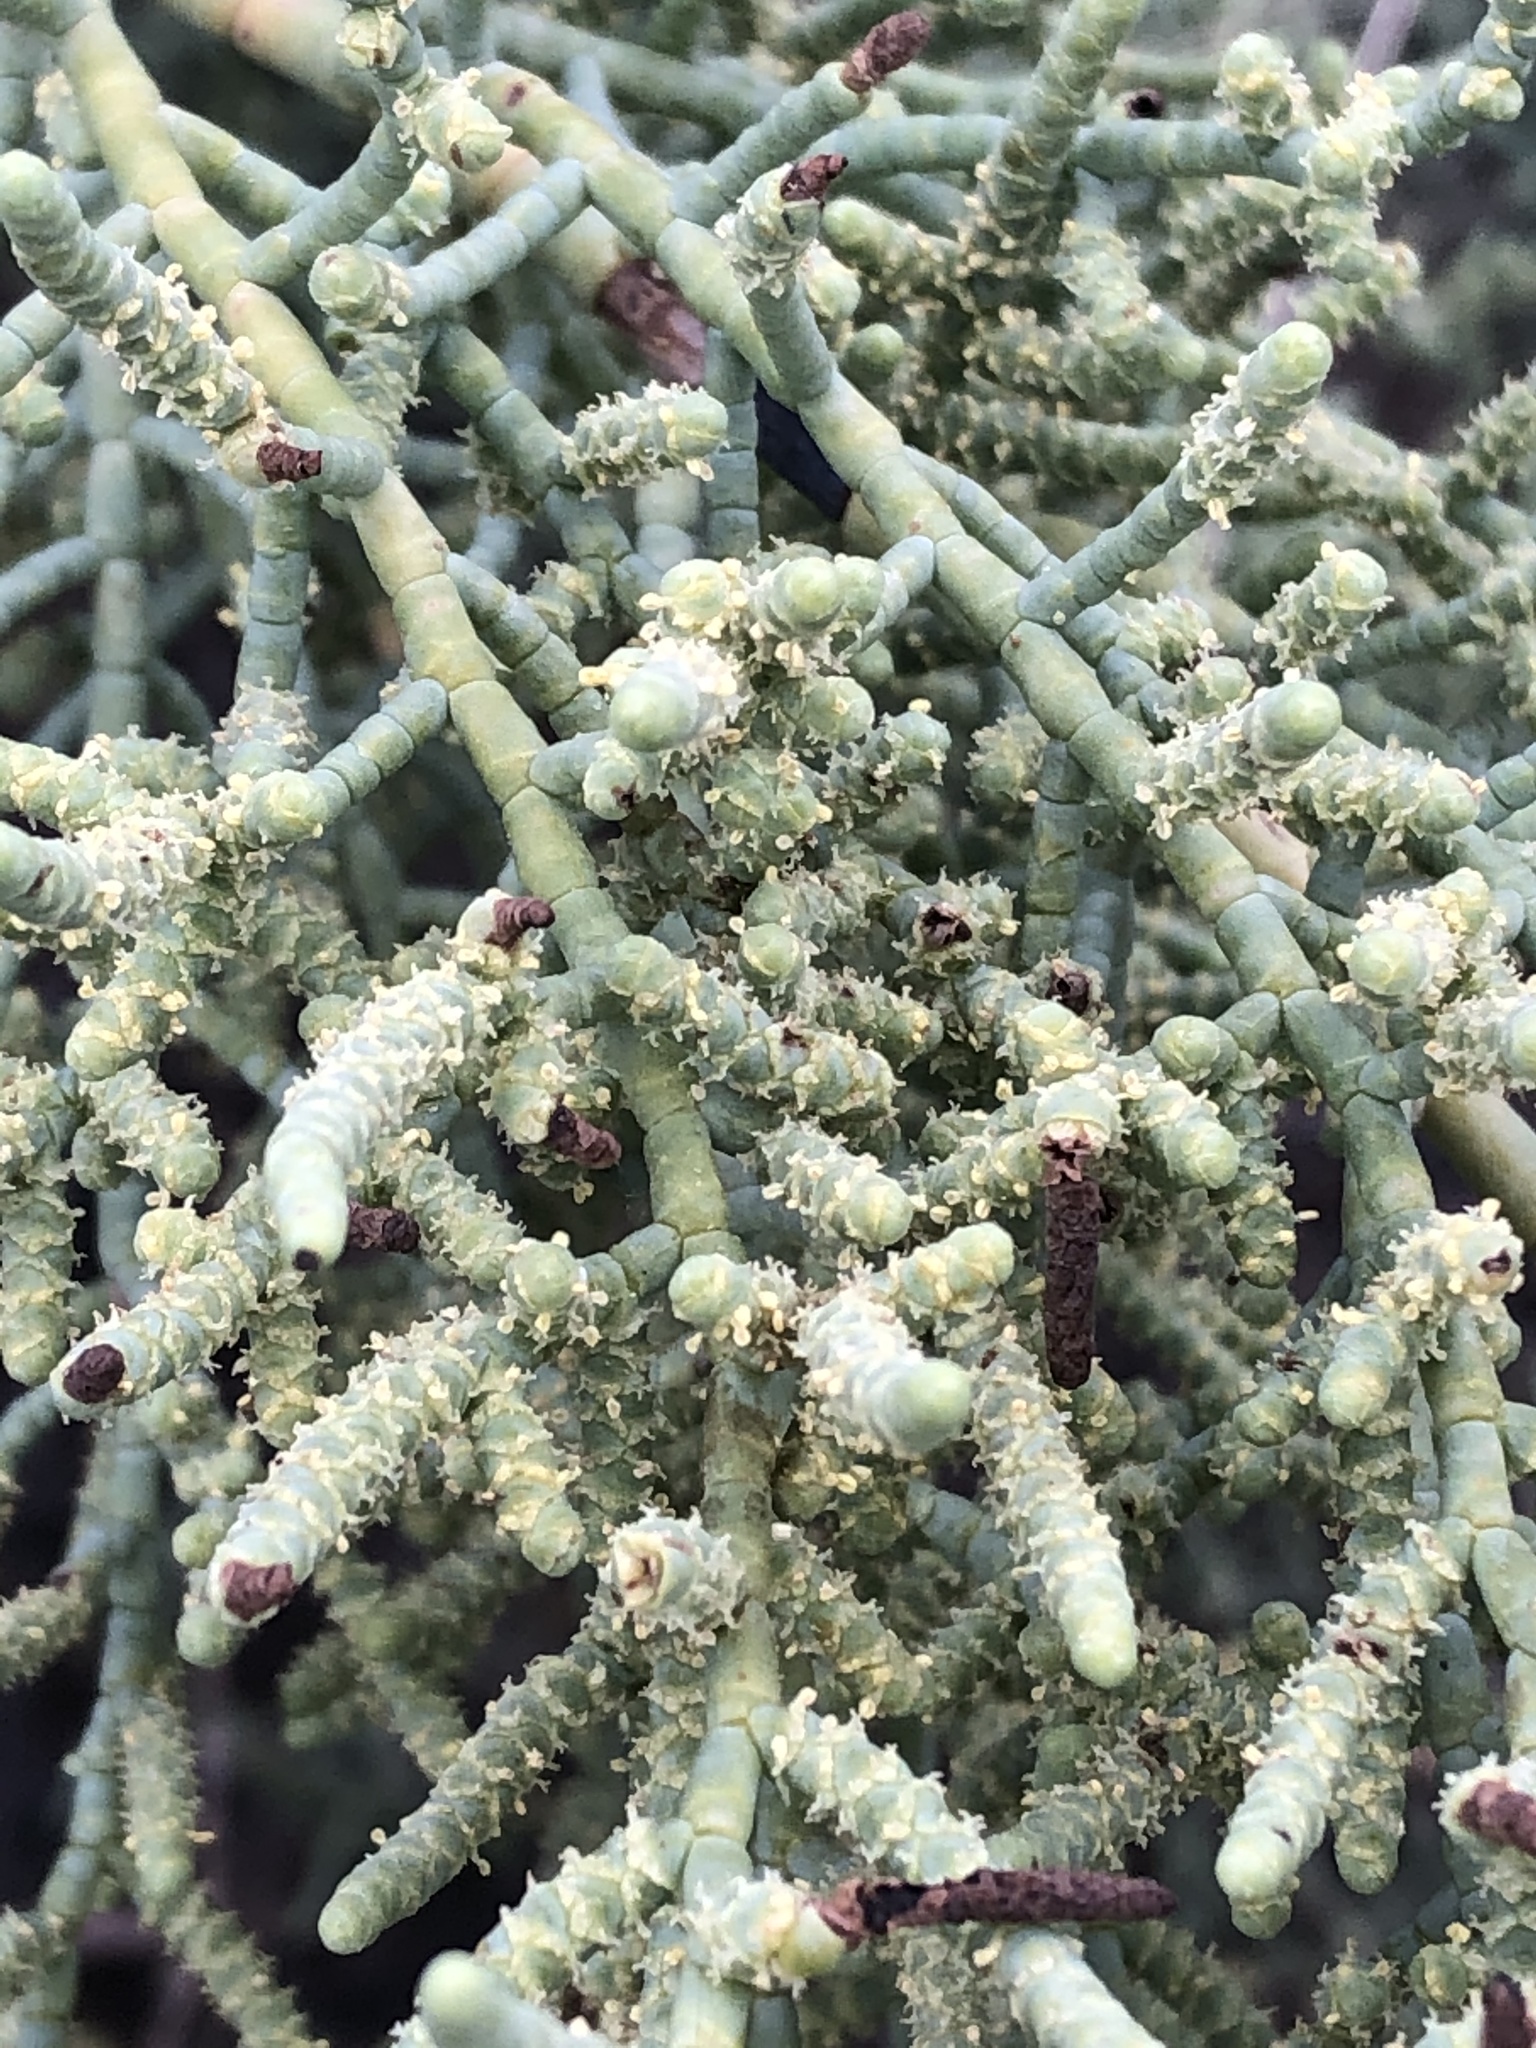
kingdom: Plantae
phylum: Tracheophyta
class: Magnoliopsida
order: Caryophyllales
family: Amaranthaceae
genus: Allenrolfea
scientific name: Allenrolfea occidentalis
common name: Iodine-bush
